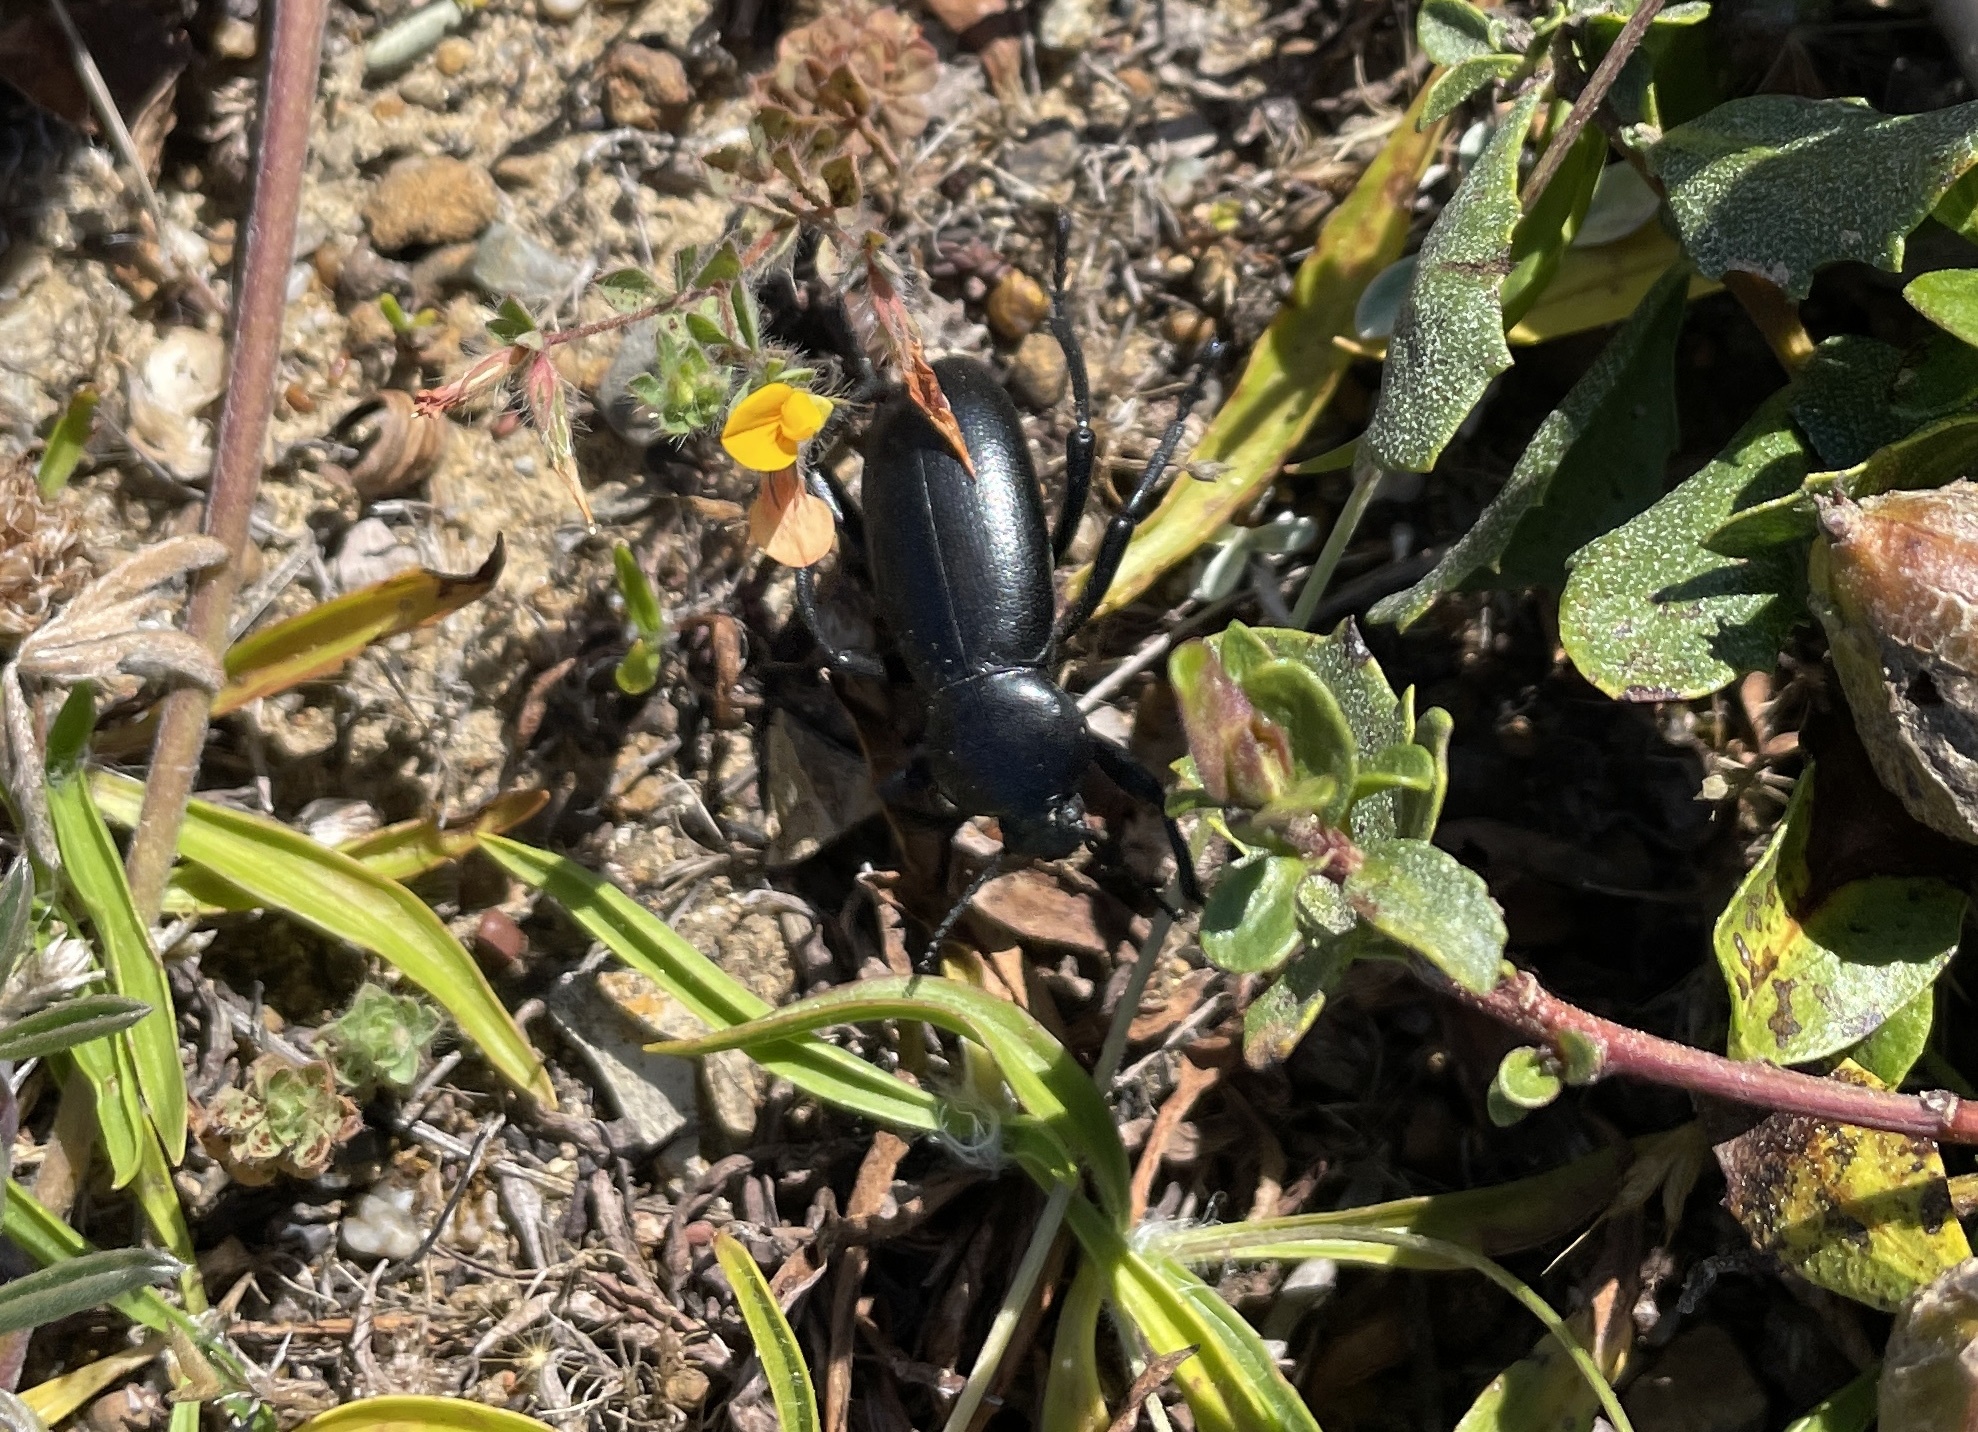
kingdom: Animalia
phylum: Arthropoda
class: Insecta
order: Coleoptera
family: Tenebrionidae
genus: Eleodes
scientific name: Eleodes grandicollis
